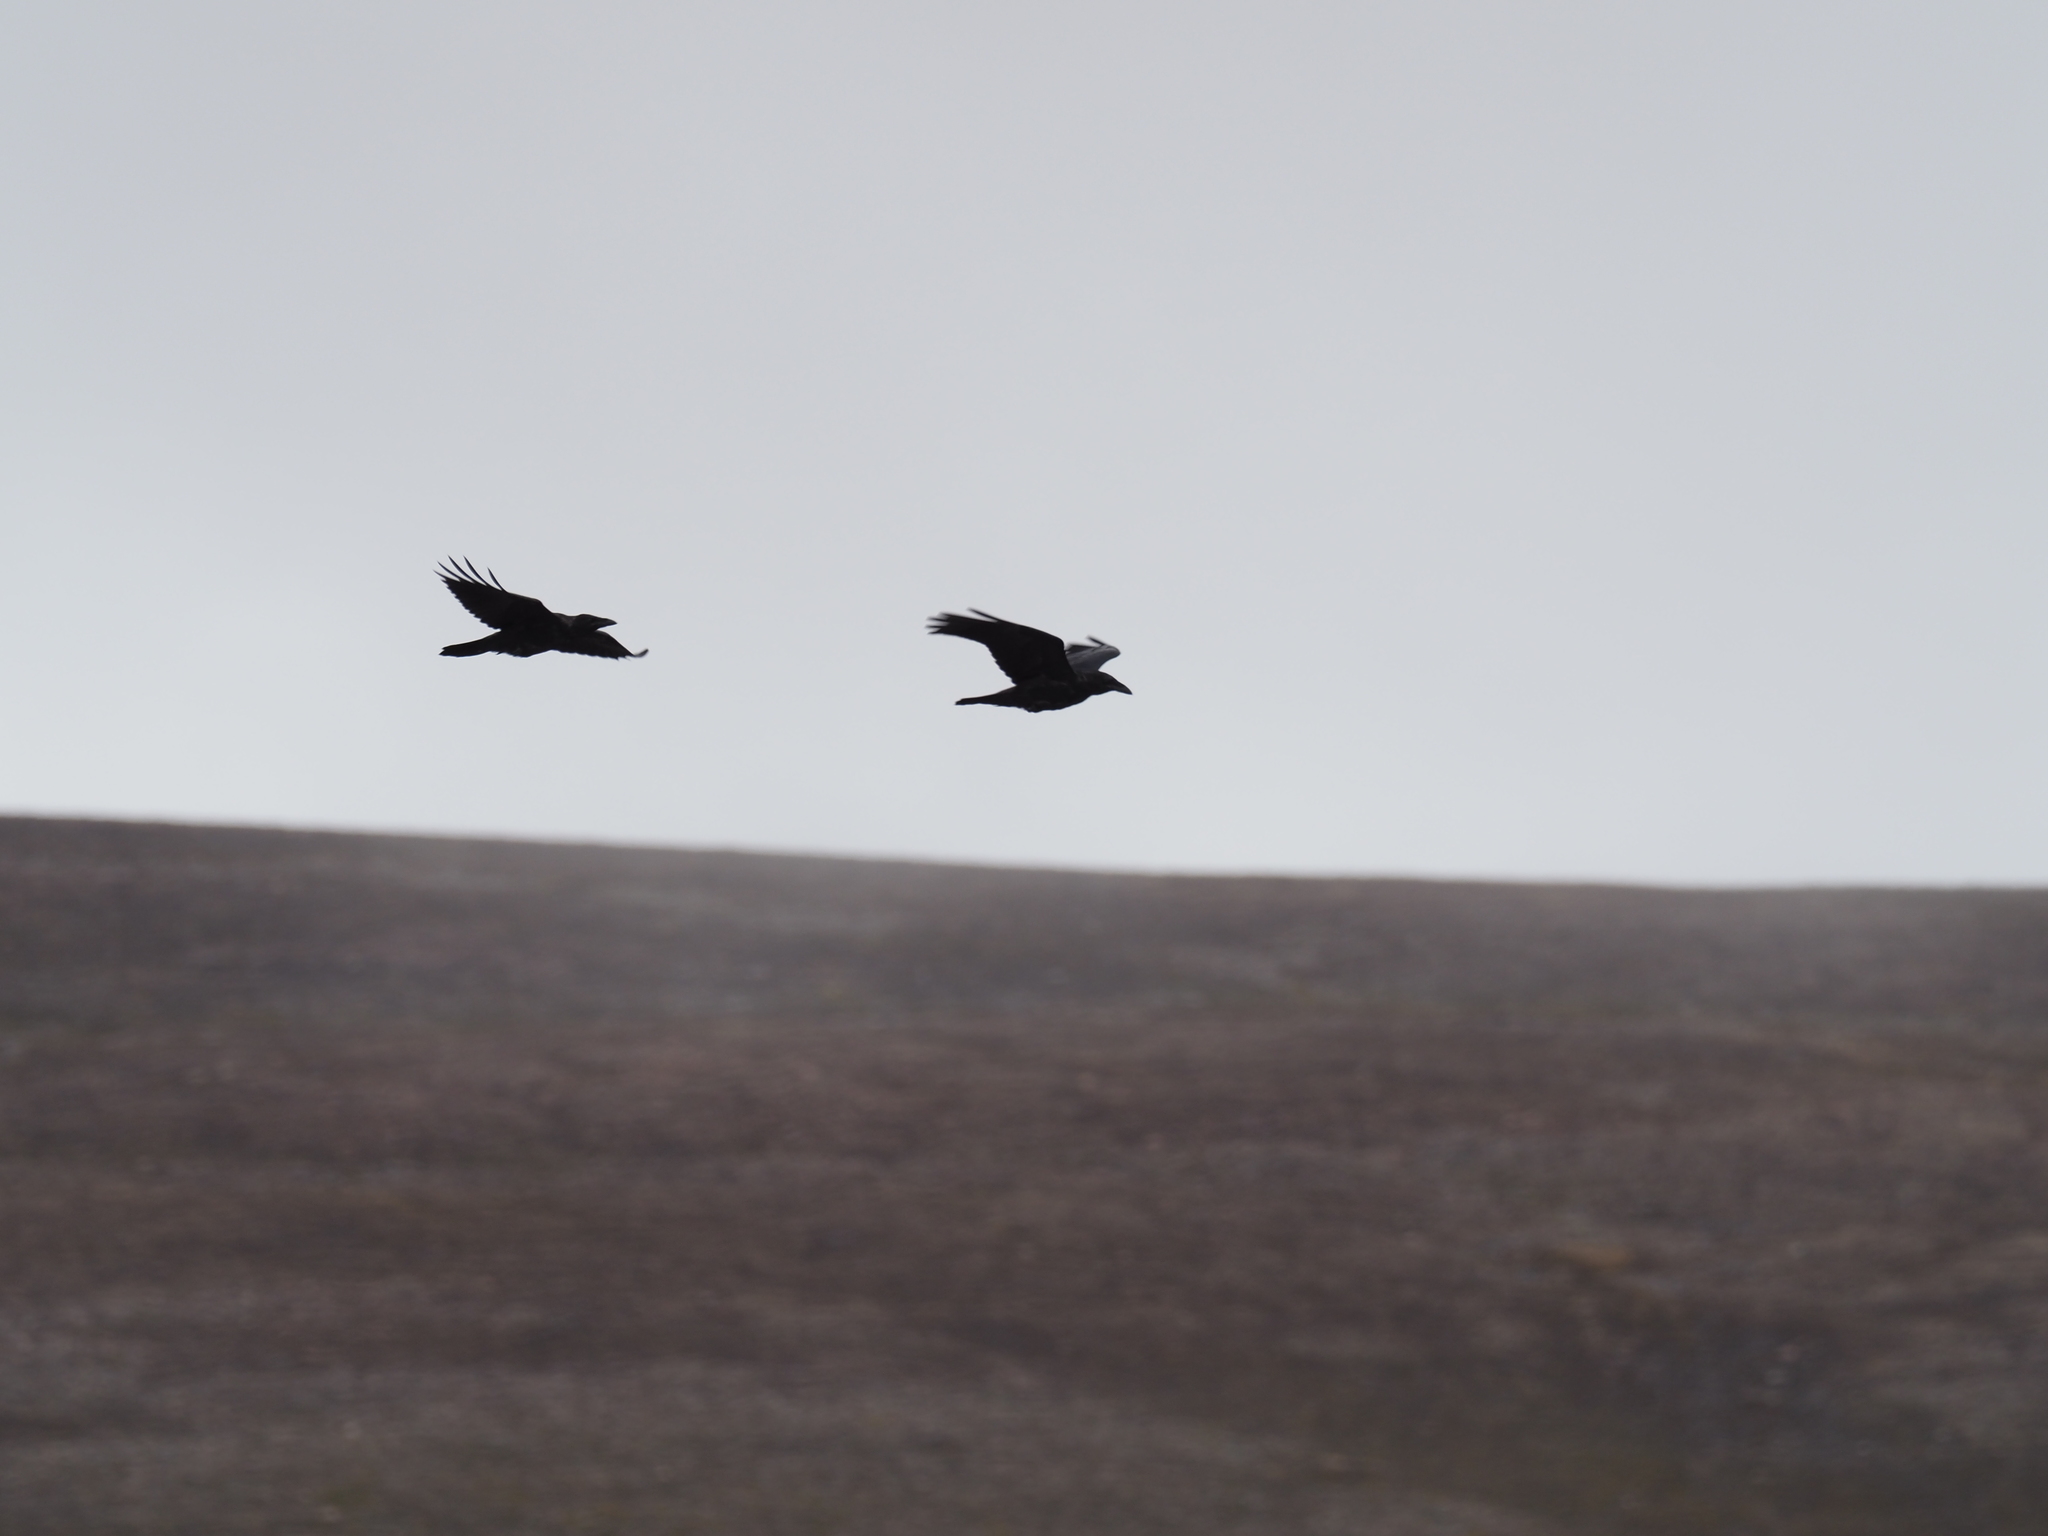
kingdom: Animalia
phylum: Chordata
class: Aves
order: Passeriformes
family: Corvidae
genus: Corvus
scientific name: Corvus corax
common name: Common raven
